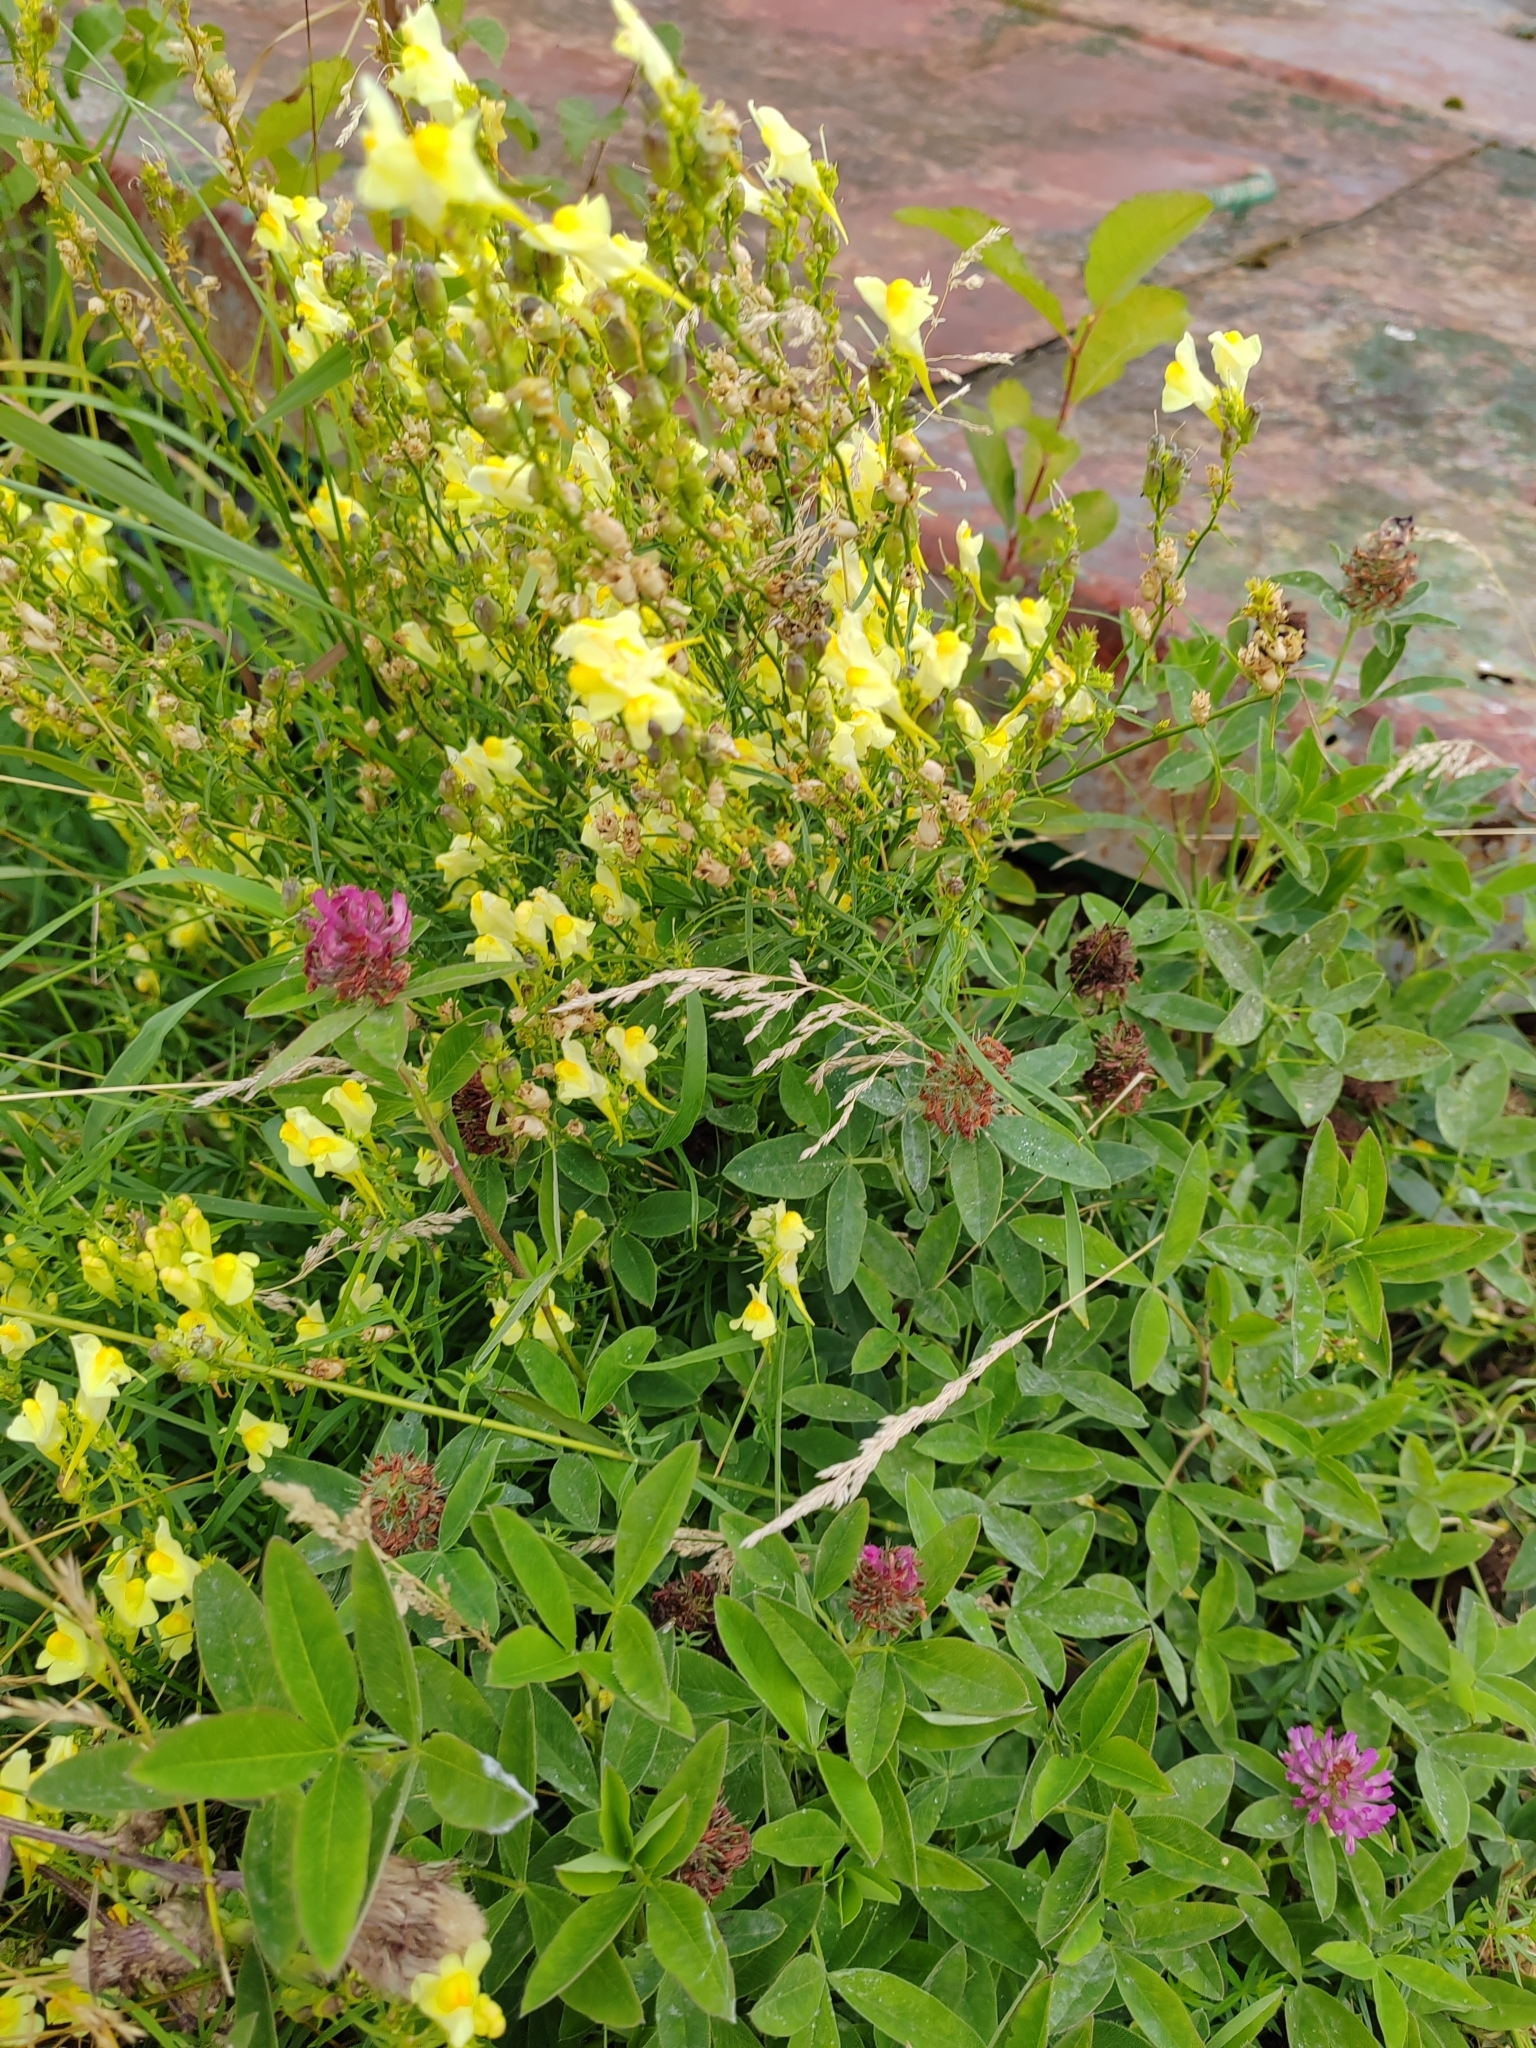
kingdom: Plantae
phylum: Tracheophyta
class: Magnoliopsida
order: Lamiales
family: Plantaginaceae
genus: Linaria
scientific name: Linaria vulgaris
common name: Butter and eggs
